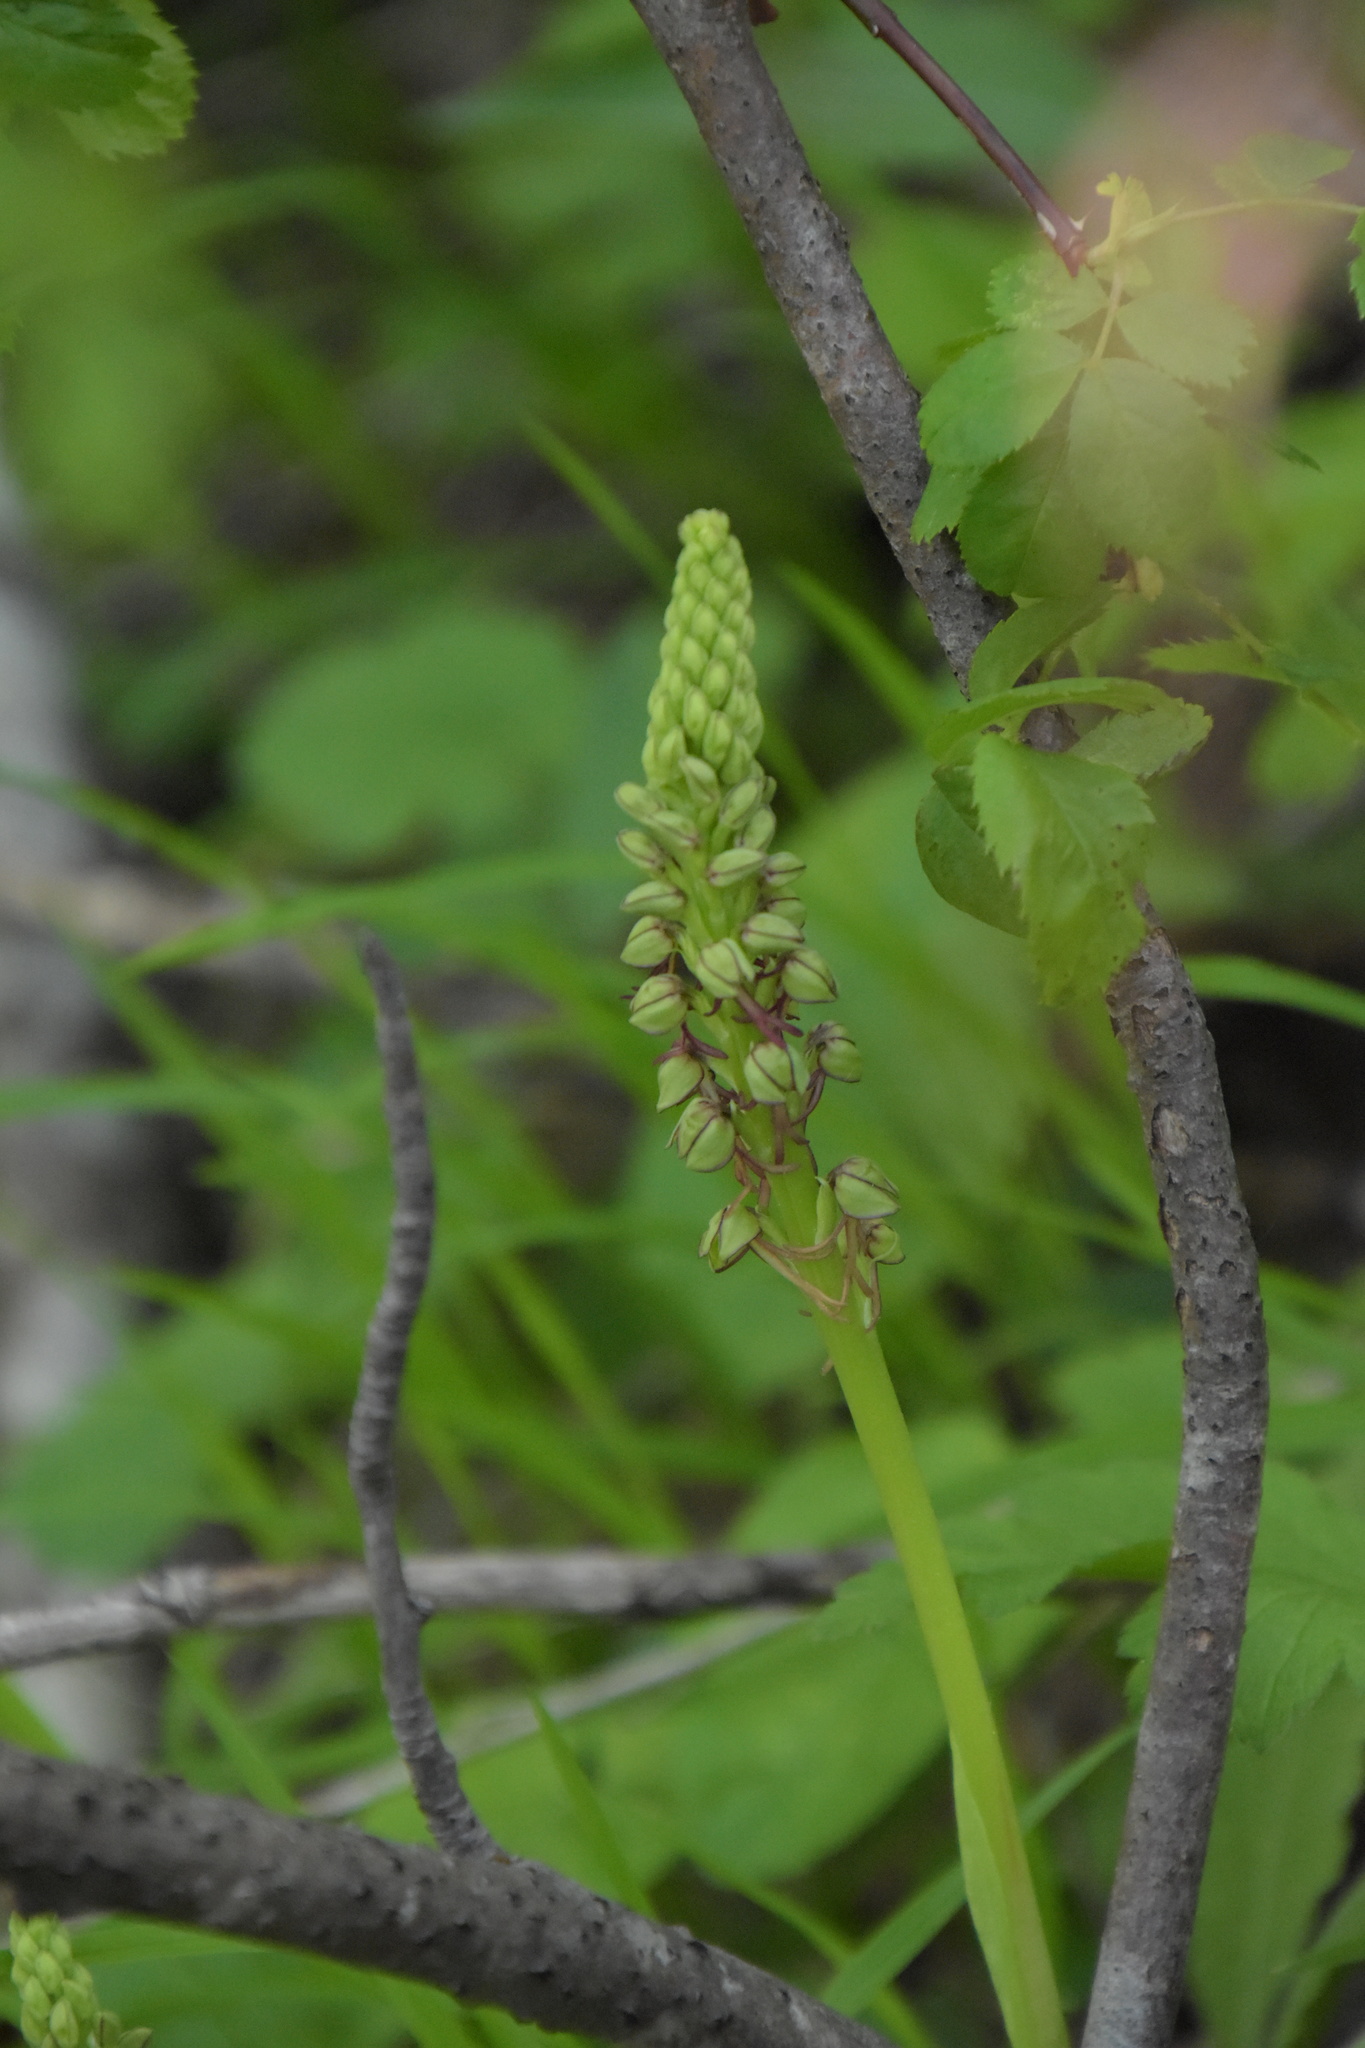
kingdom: Plantae
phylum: Tracheophyta
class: Liliopsida
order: Asparagales
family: Orchidaceae
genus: Orchis
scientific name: Orchis anthropophora
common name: Man orchid
